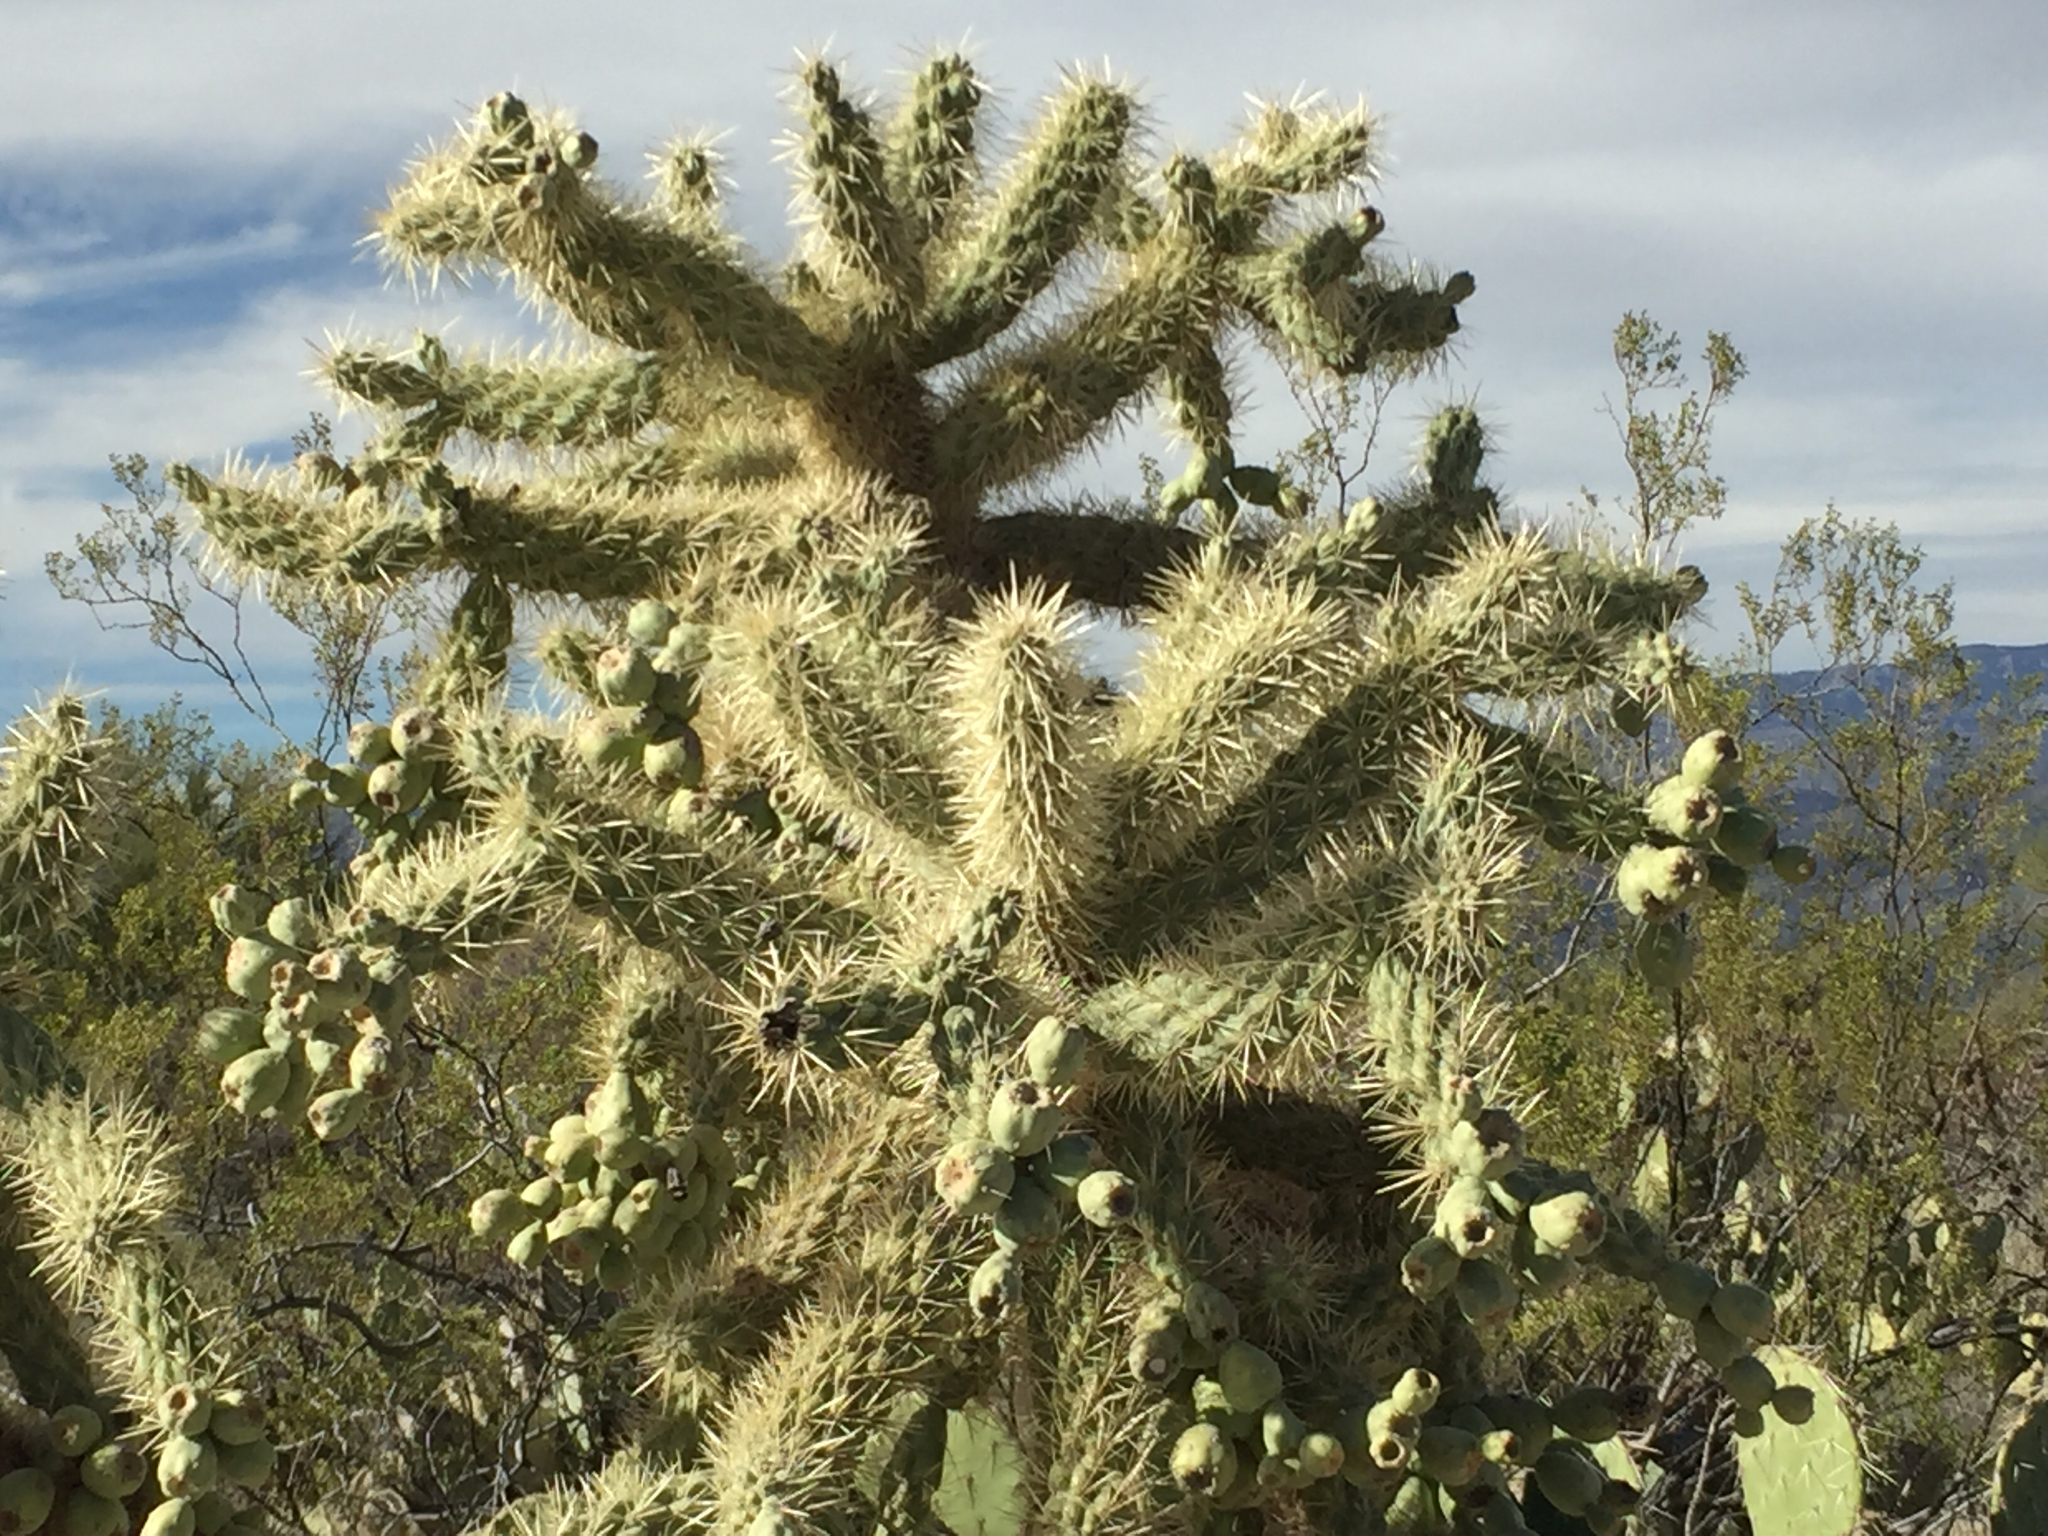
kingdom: Plantae
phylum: Tracheophyta
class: Magnoliopsida
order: Caryophyllales
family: Cactaceae
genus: Cylindropuntia
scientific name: Cylindropuntia fulgida
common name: Jumping cholla
